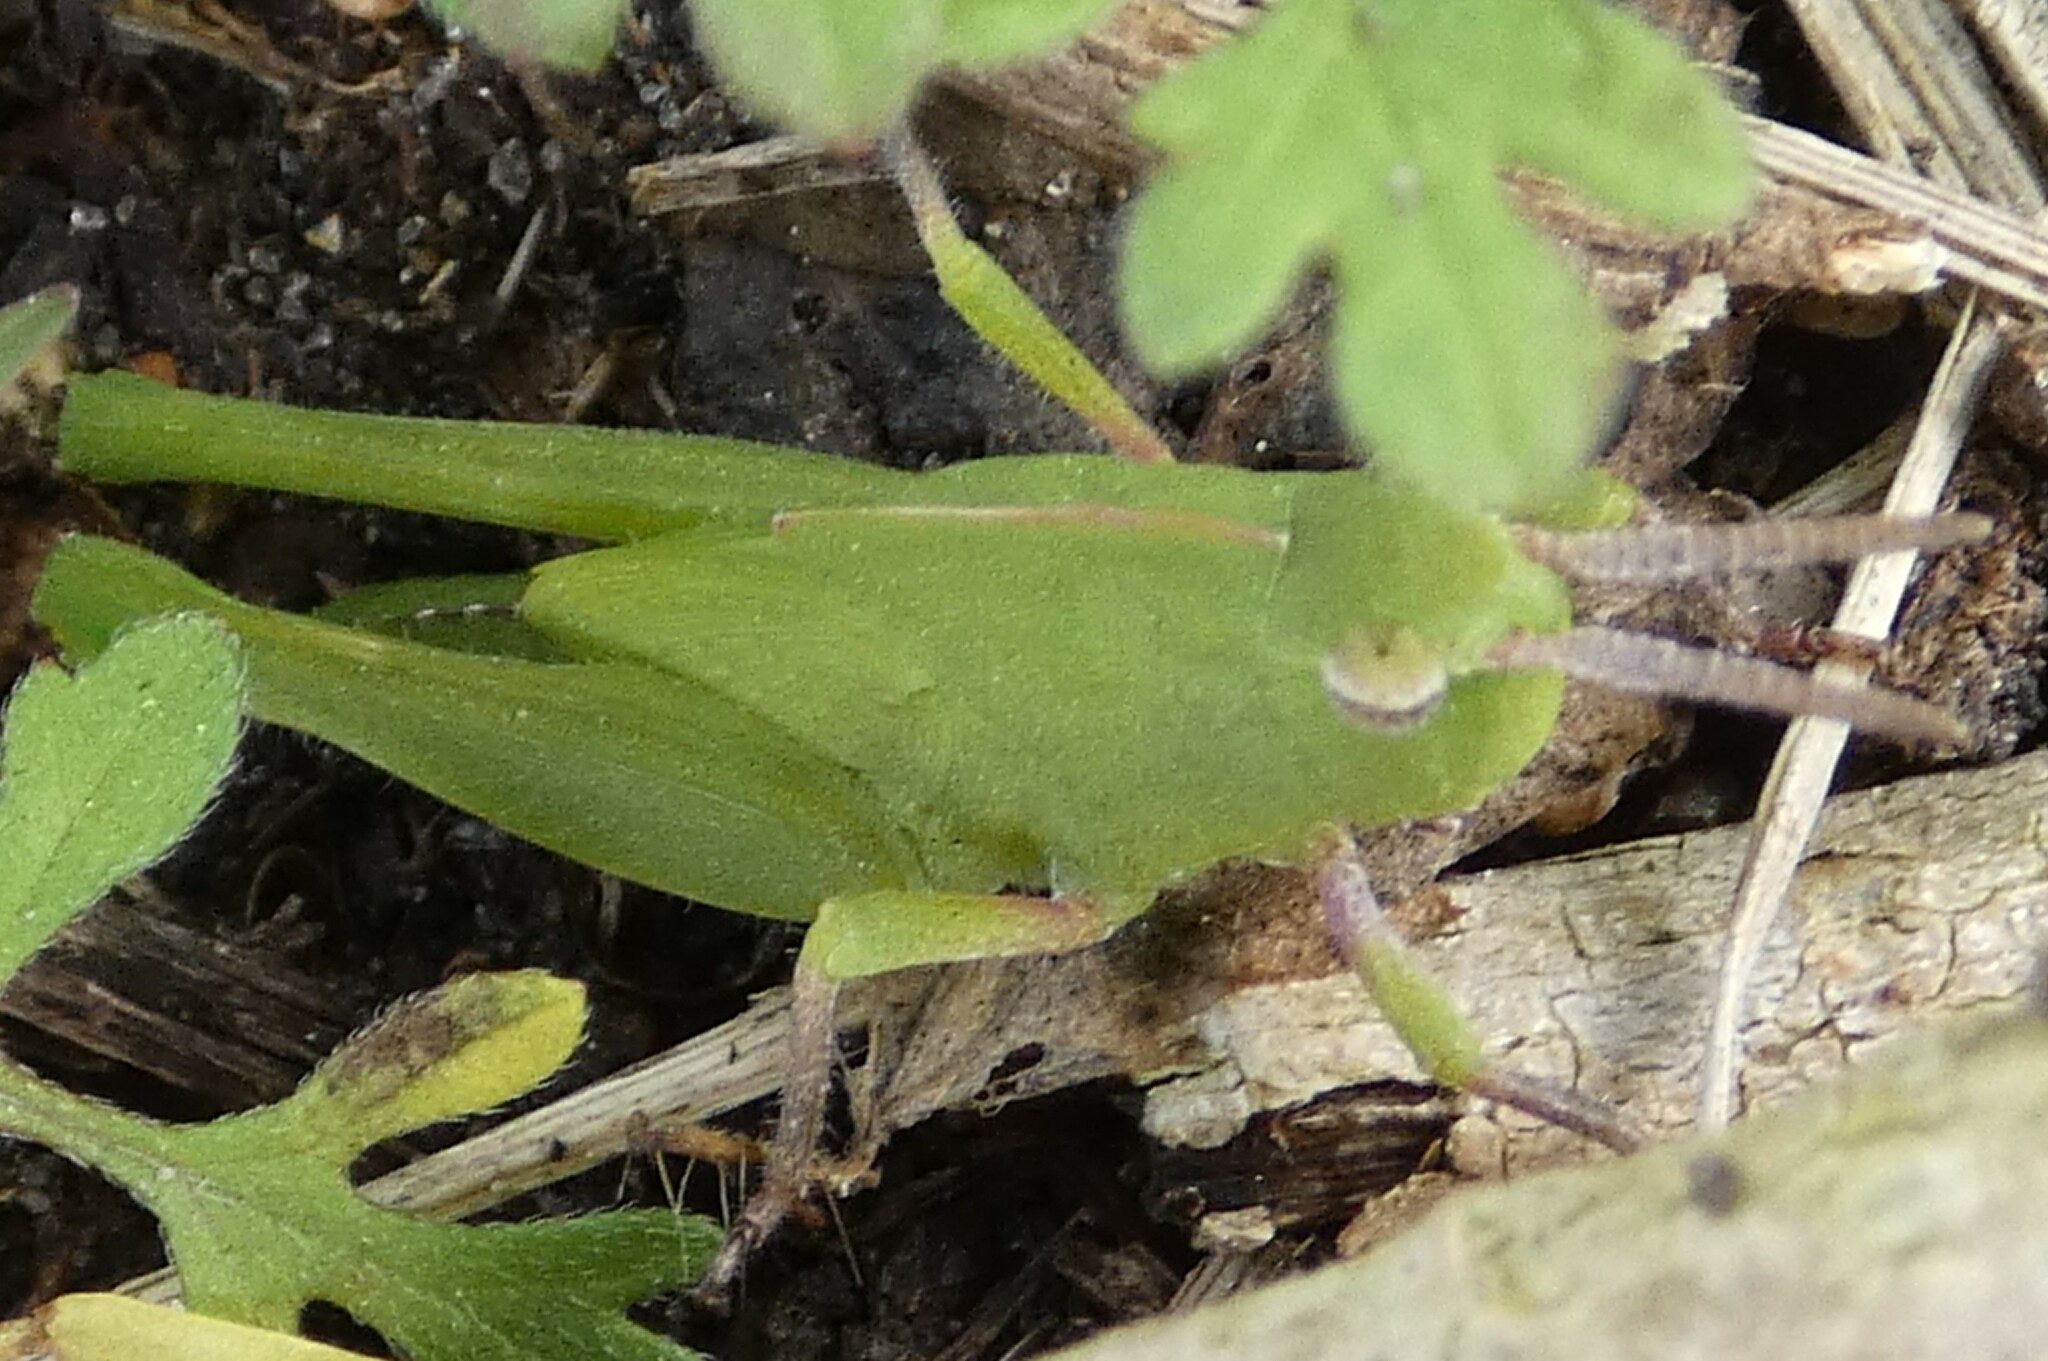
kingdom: Animalia
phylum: Arthropoda
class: Insecta
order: Orthoptera
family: Acrididae
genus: Chortophaga
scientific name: Chortophaga australior
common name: Southern green-striped grasshopper
